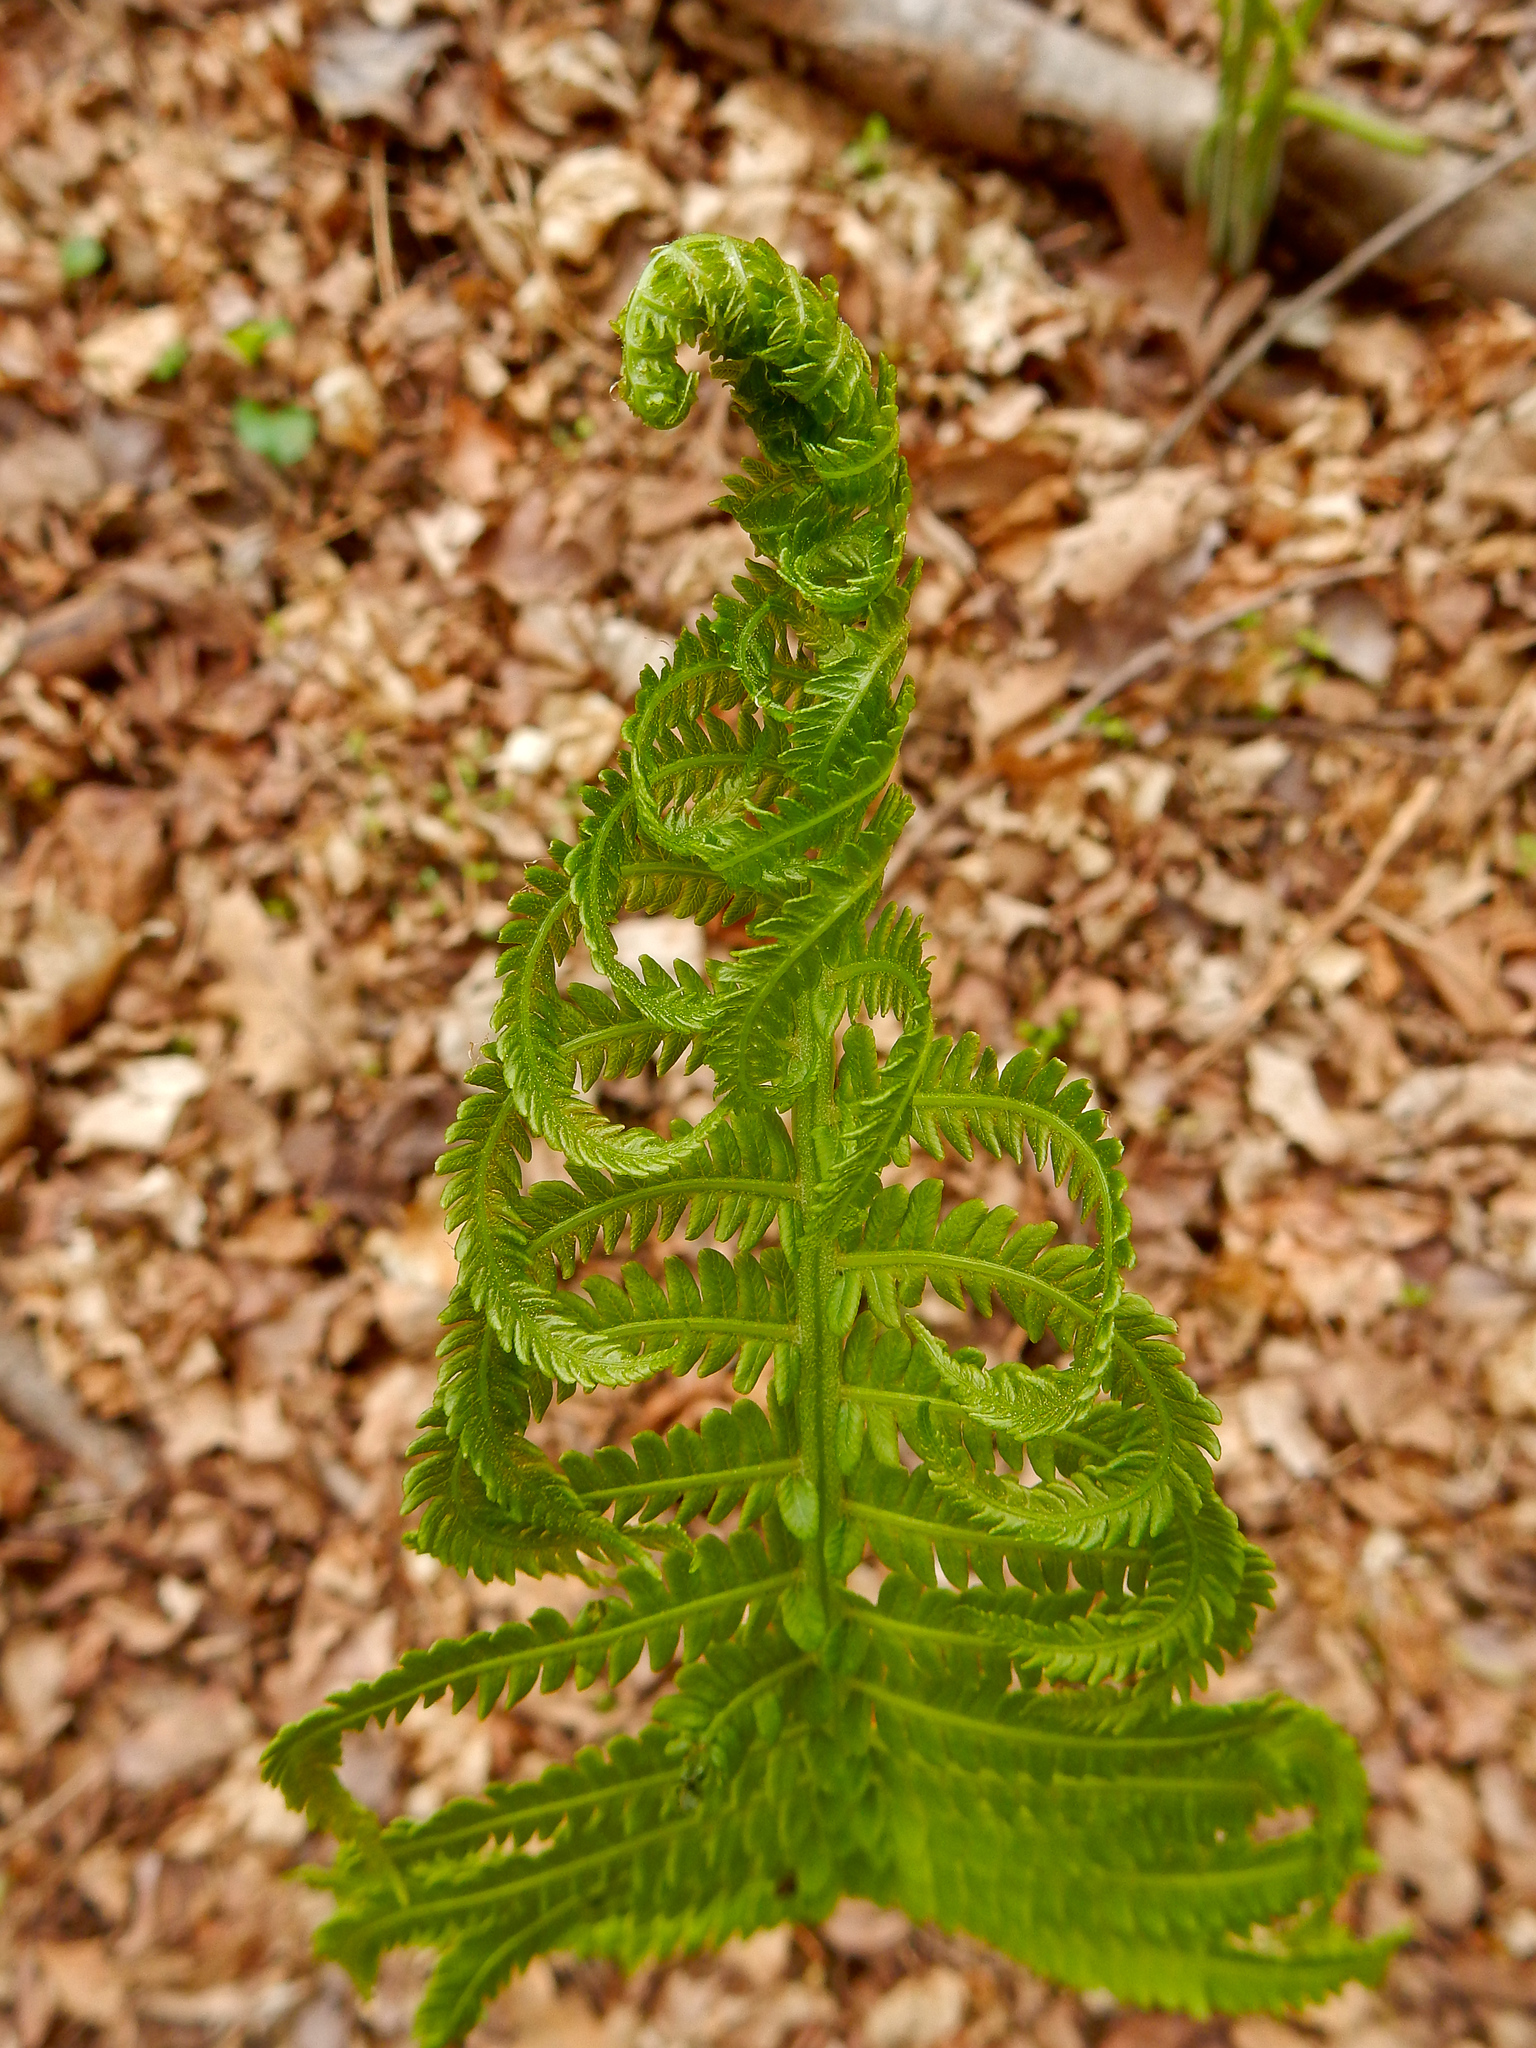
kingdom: Plantae
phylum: Tracheophyta
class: Polypodiopsida
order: Polypodiales
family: Onocleaceae
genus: Matteuccia
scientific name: Matteuccia struthiopteris
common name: Ostrich fern
